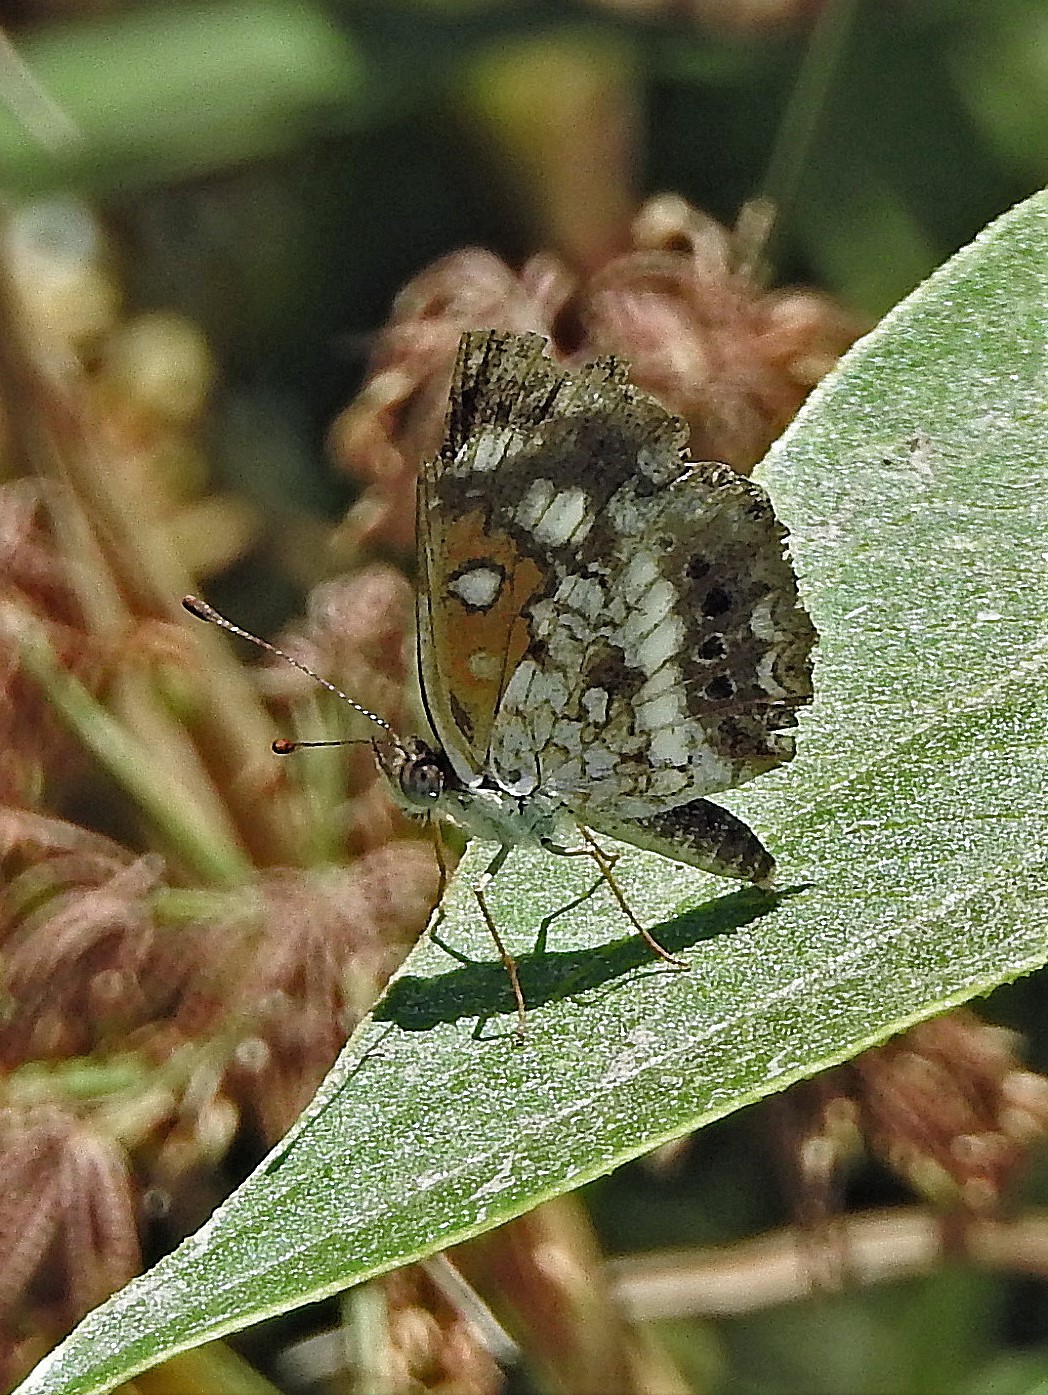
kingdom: Animalia
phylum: Arthropoda
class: Insecta
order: Lepidoptera
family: Nymphalidae
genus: Ortilia
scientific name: Ortilia ithra
